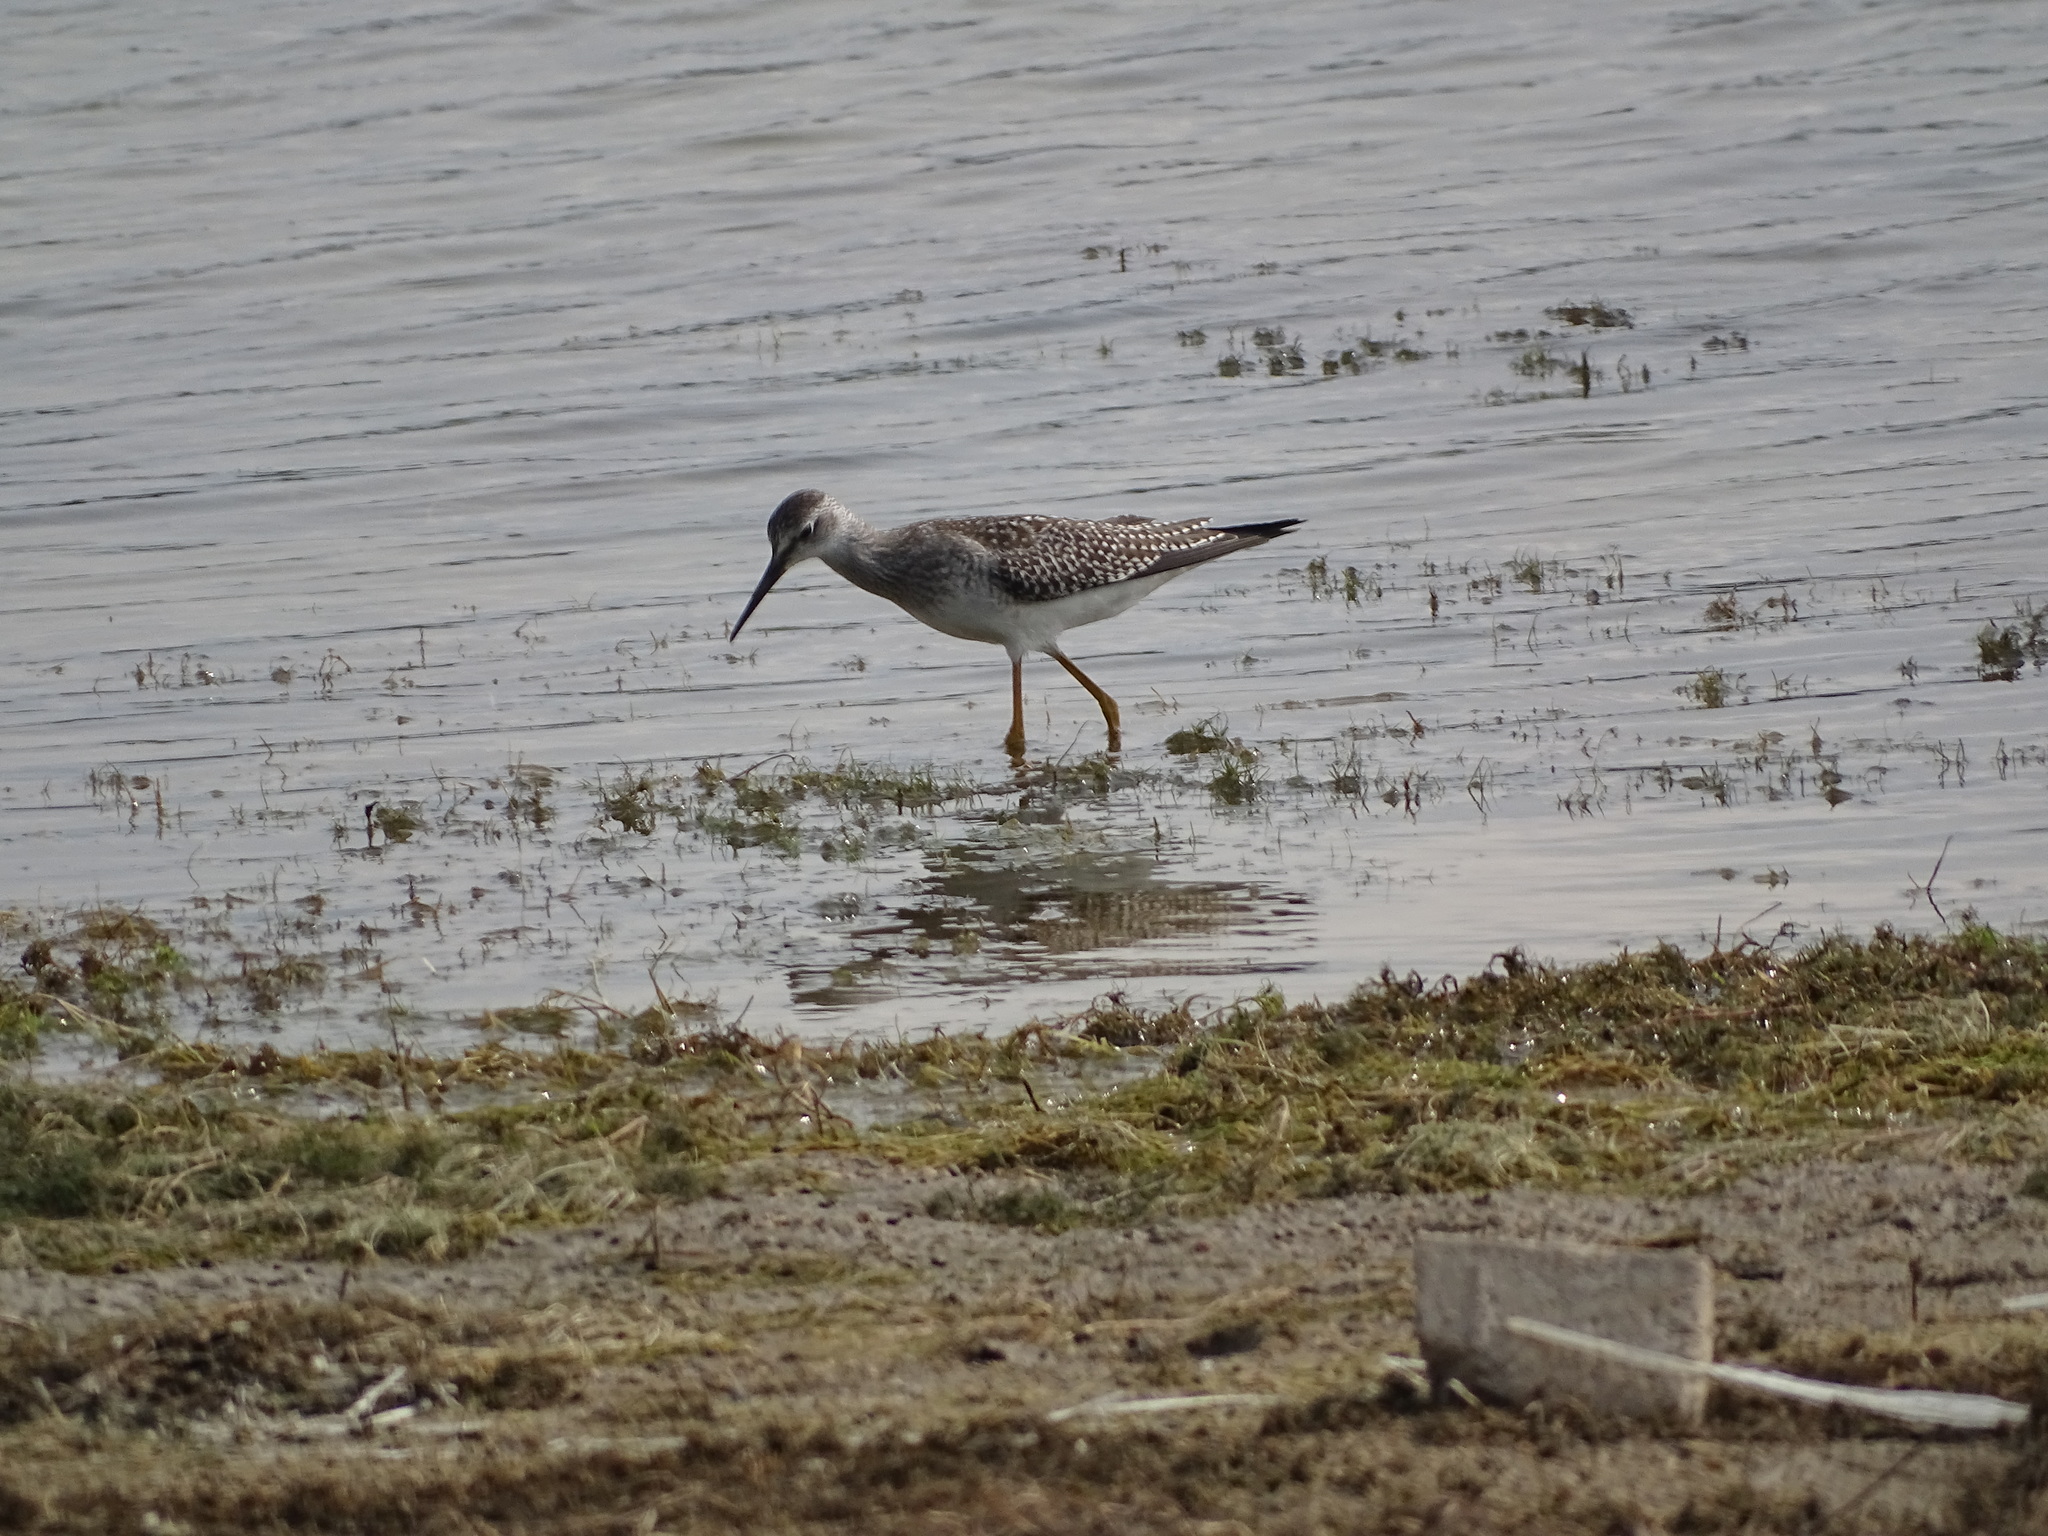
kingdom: Animalia
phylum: Chordata
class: Aves
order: Charadriiformes
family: Scolopacidae
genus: Tringa
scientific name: Tringa flavipes
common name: Lesser yellowlegs
